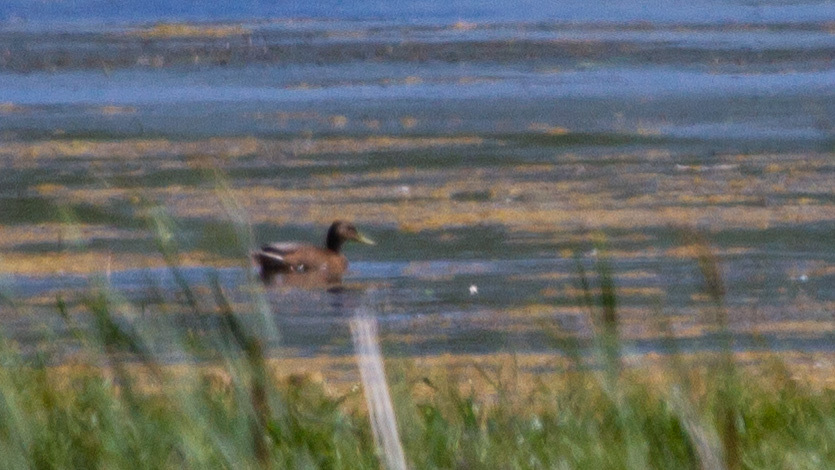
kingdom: Animalia
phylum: Chordata
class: Aves
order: Anseriformes
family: Anatidae
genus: Anas
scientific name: Anas platyrhynchos
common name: Mallard
